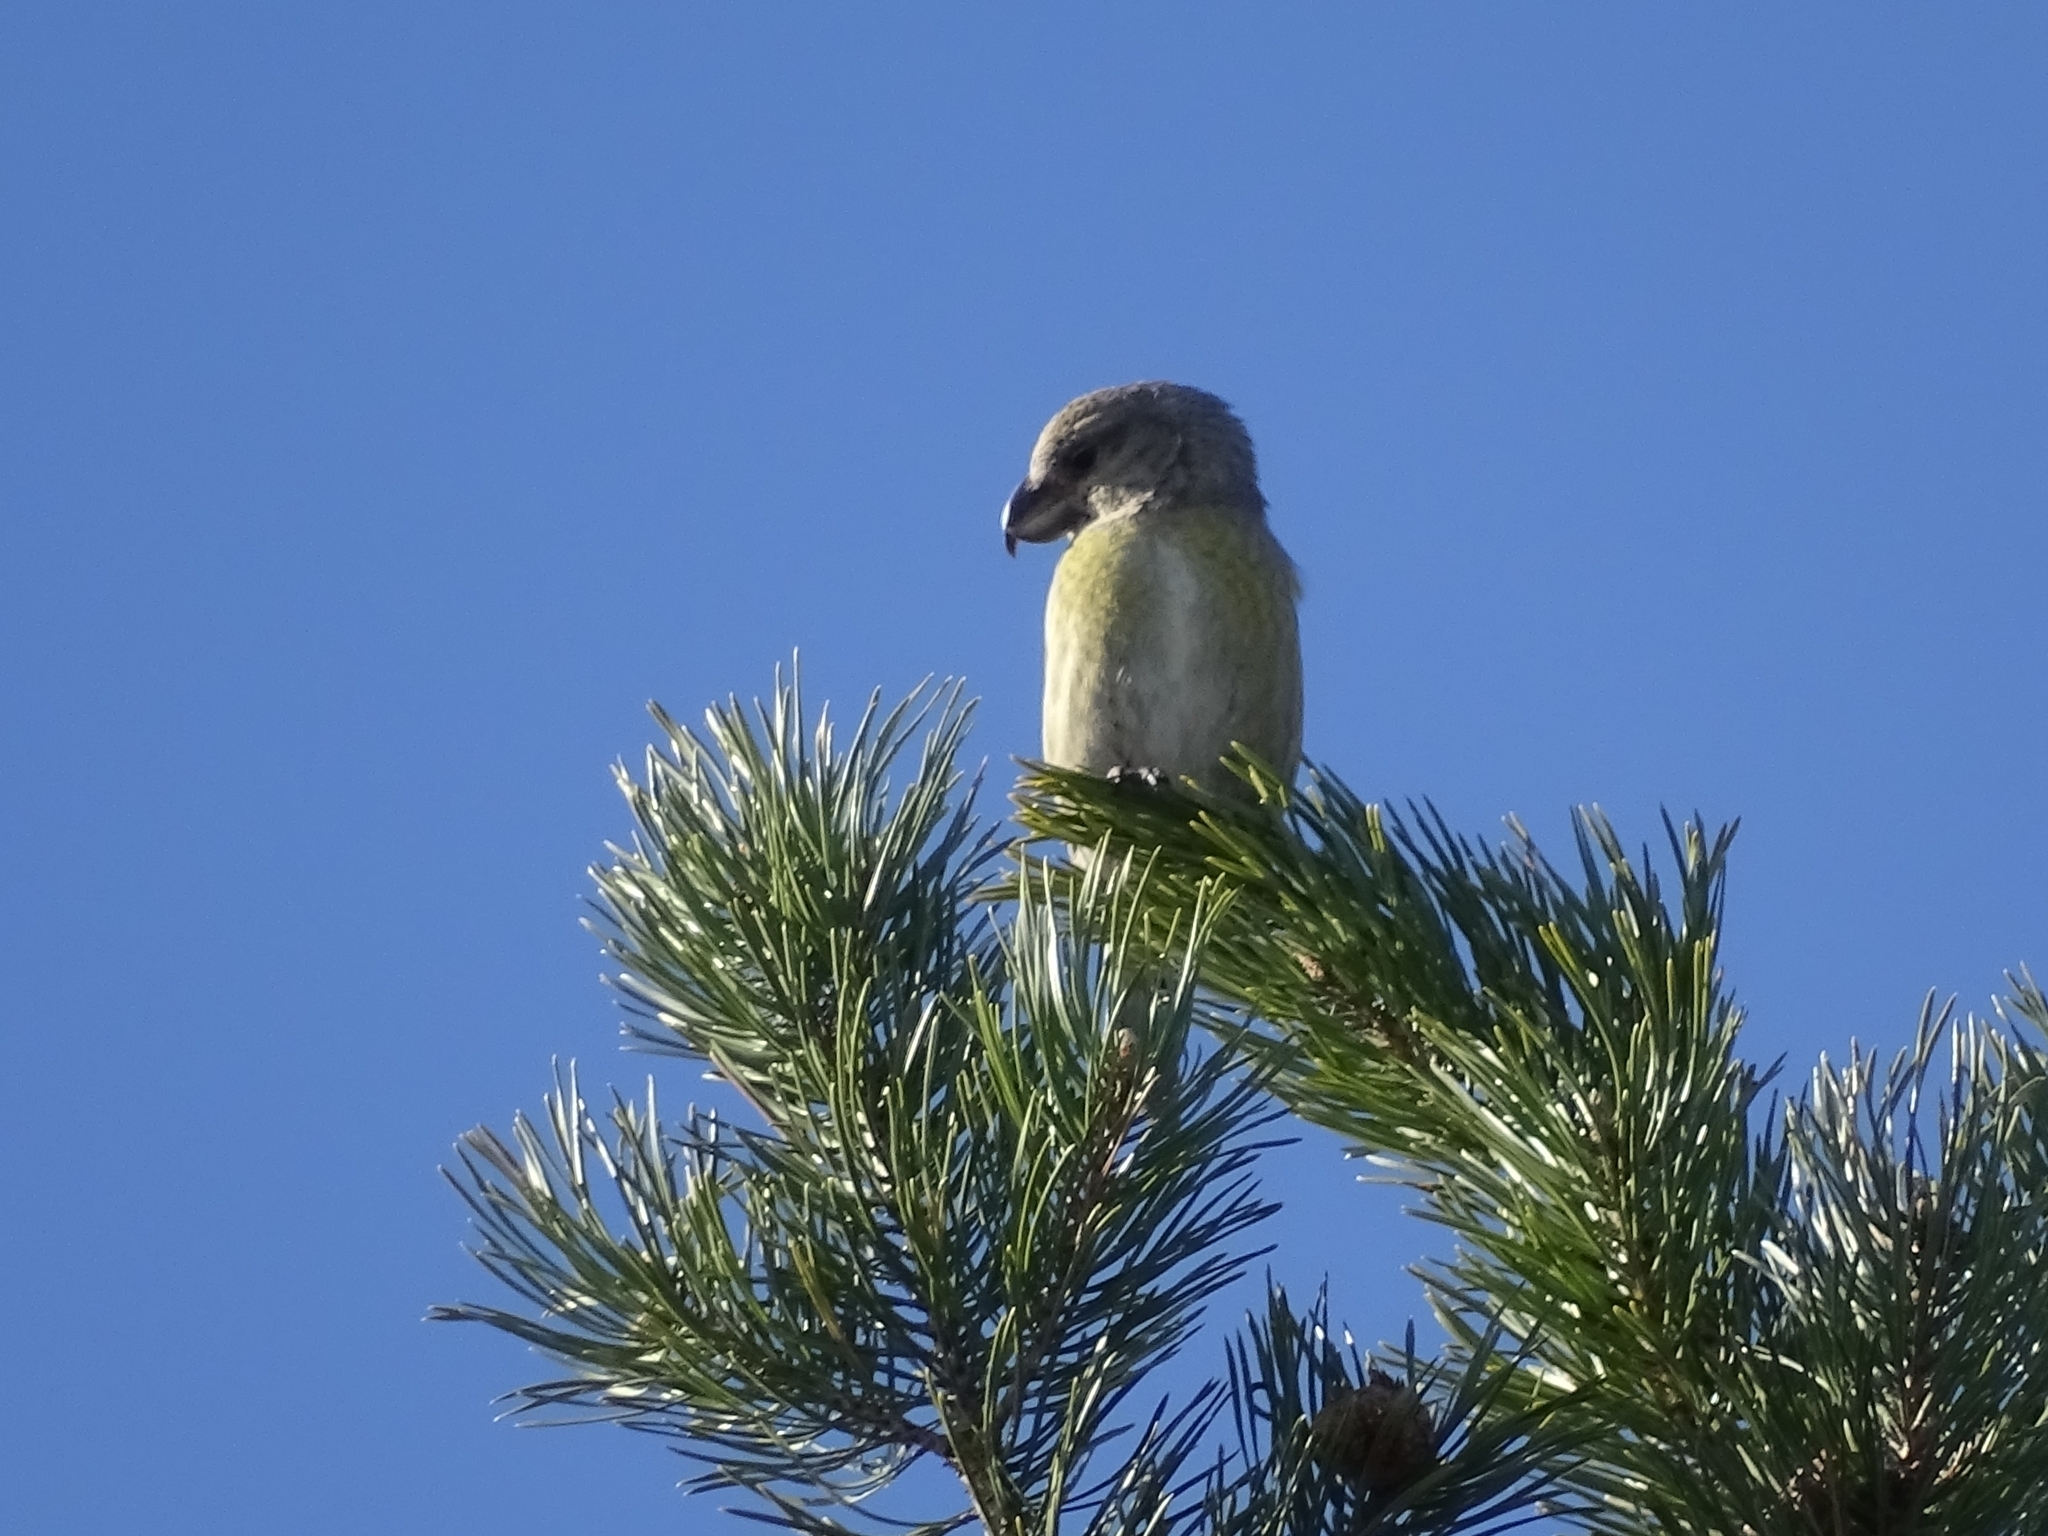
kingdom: Animalia
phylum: Chordata
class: Aves
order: Passeriformes
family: Fringillidae
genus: Loxia
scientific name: Loxia pytyopsittacus
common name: Parrot crossbill
